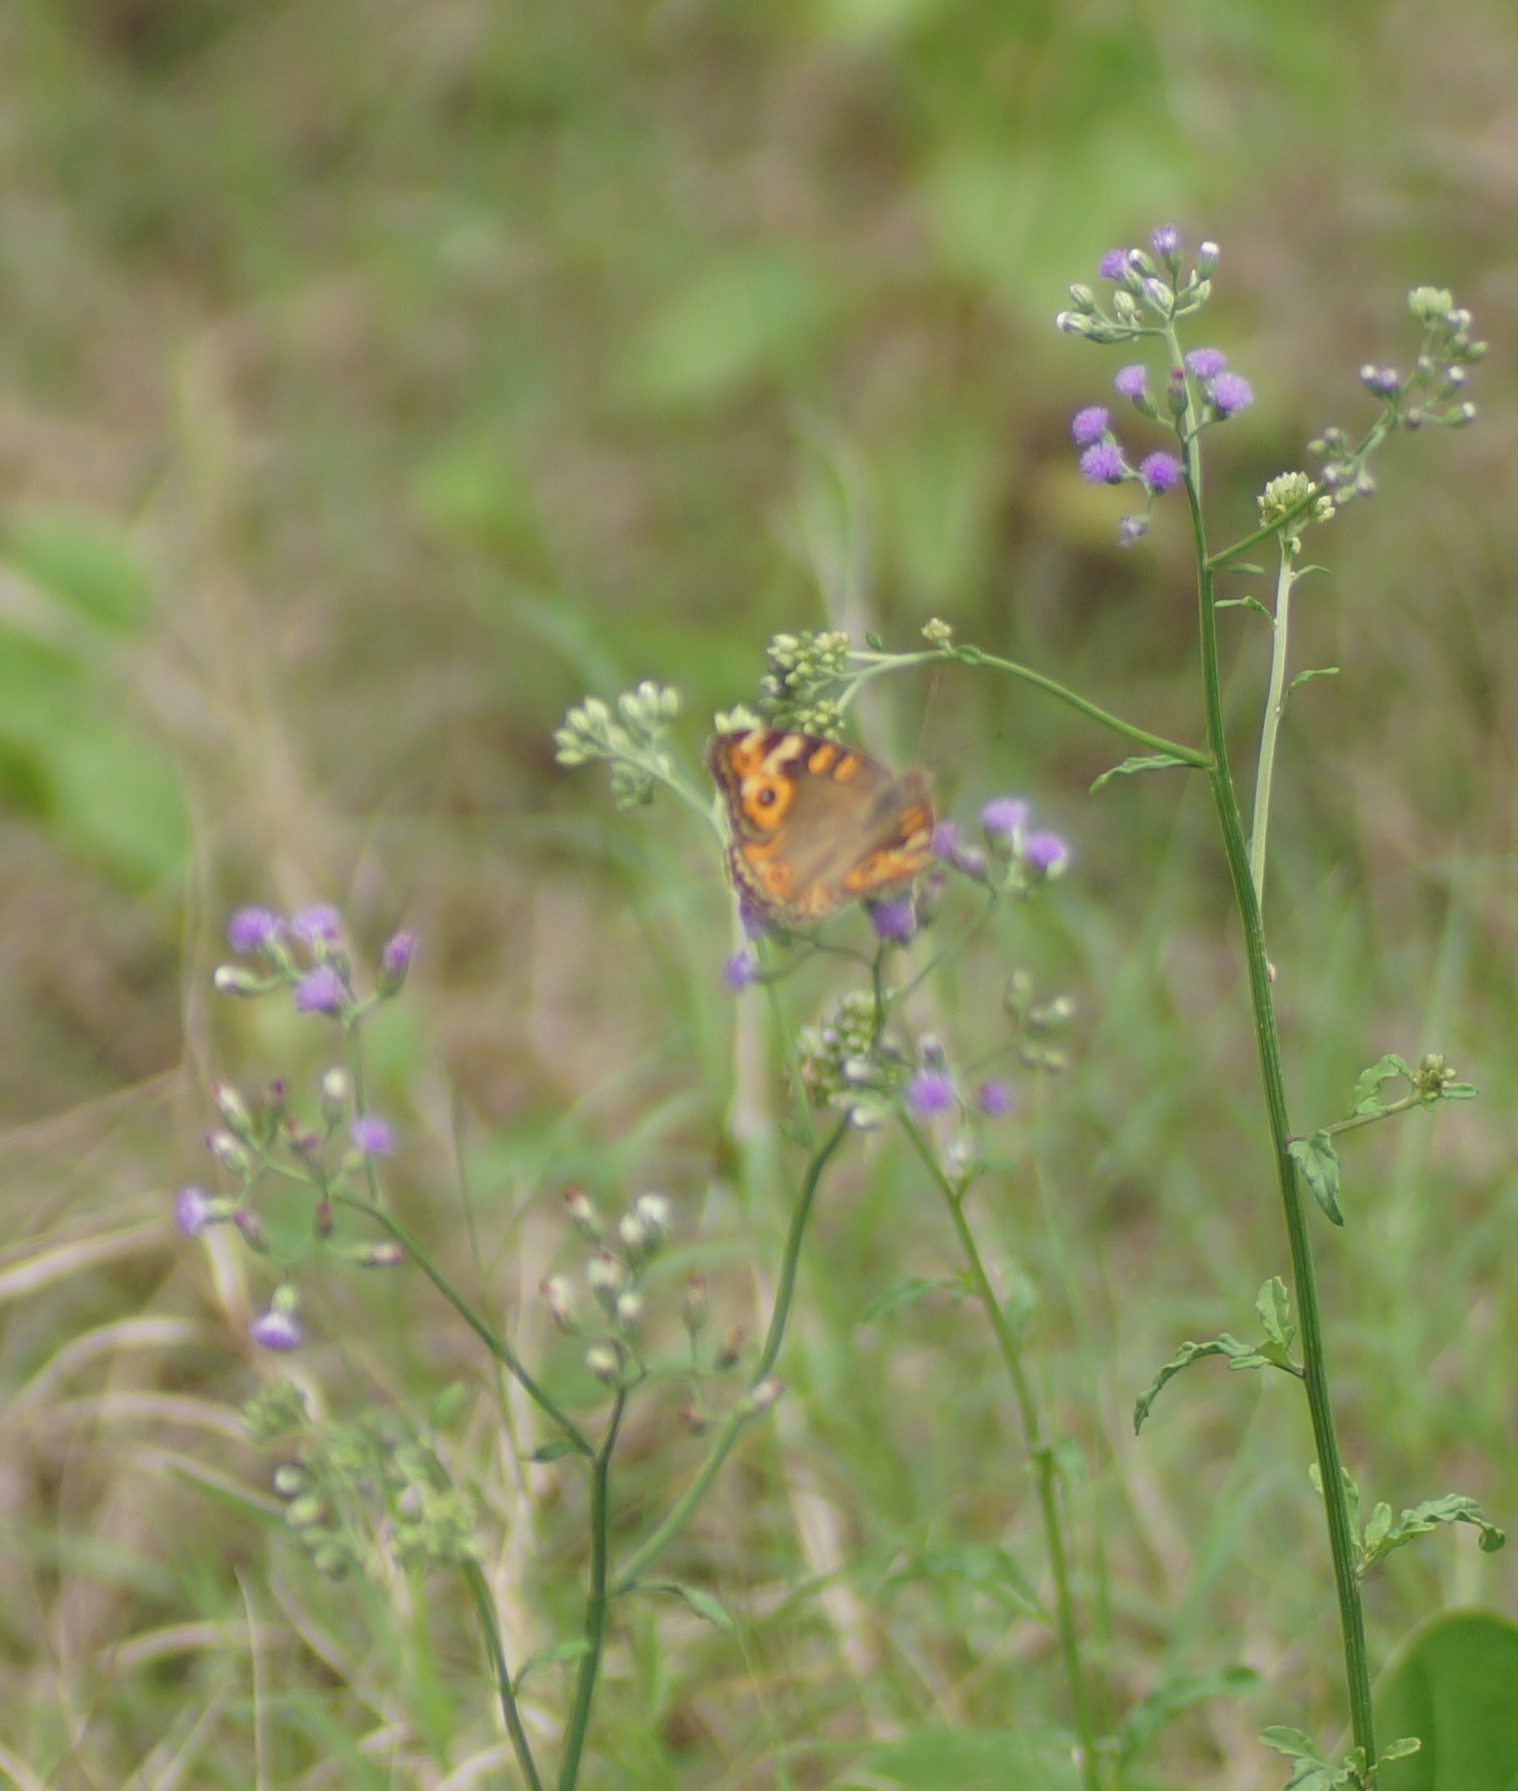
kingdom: Animalia
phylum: Arthropoda
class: Insecta
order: Lepidoptera
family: Nymphalidae
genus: Junonia
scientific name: Junonia villida
